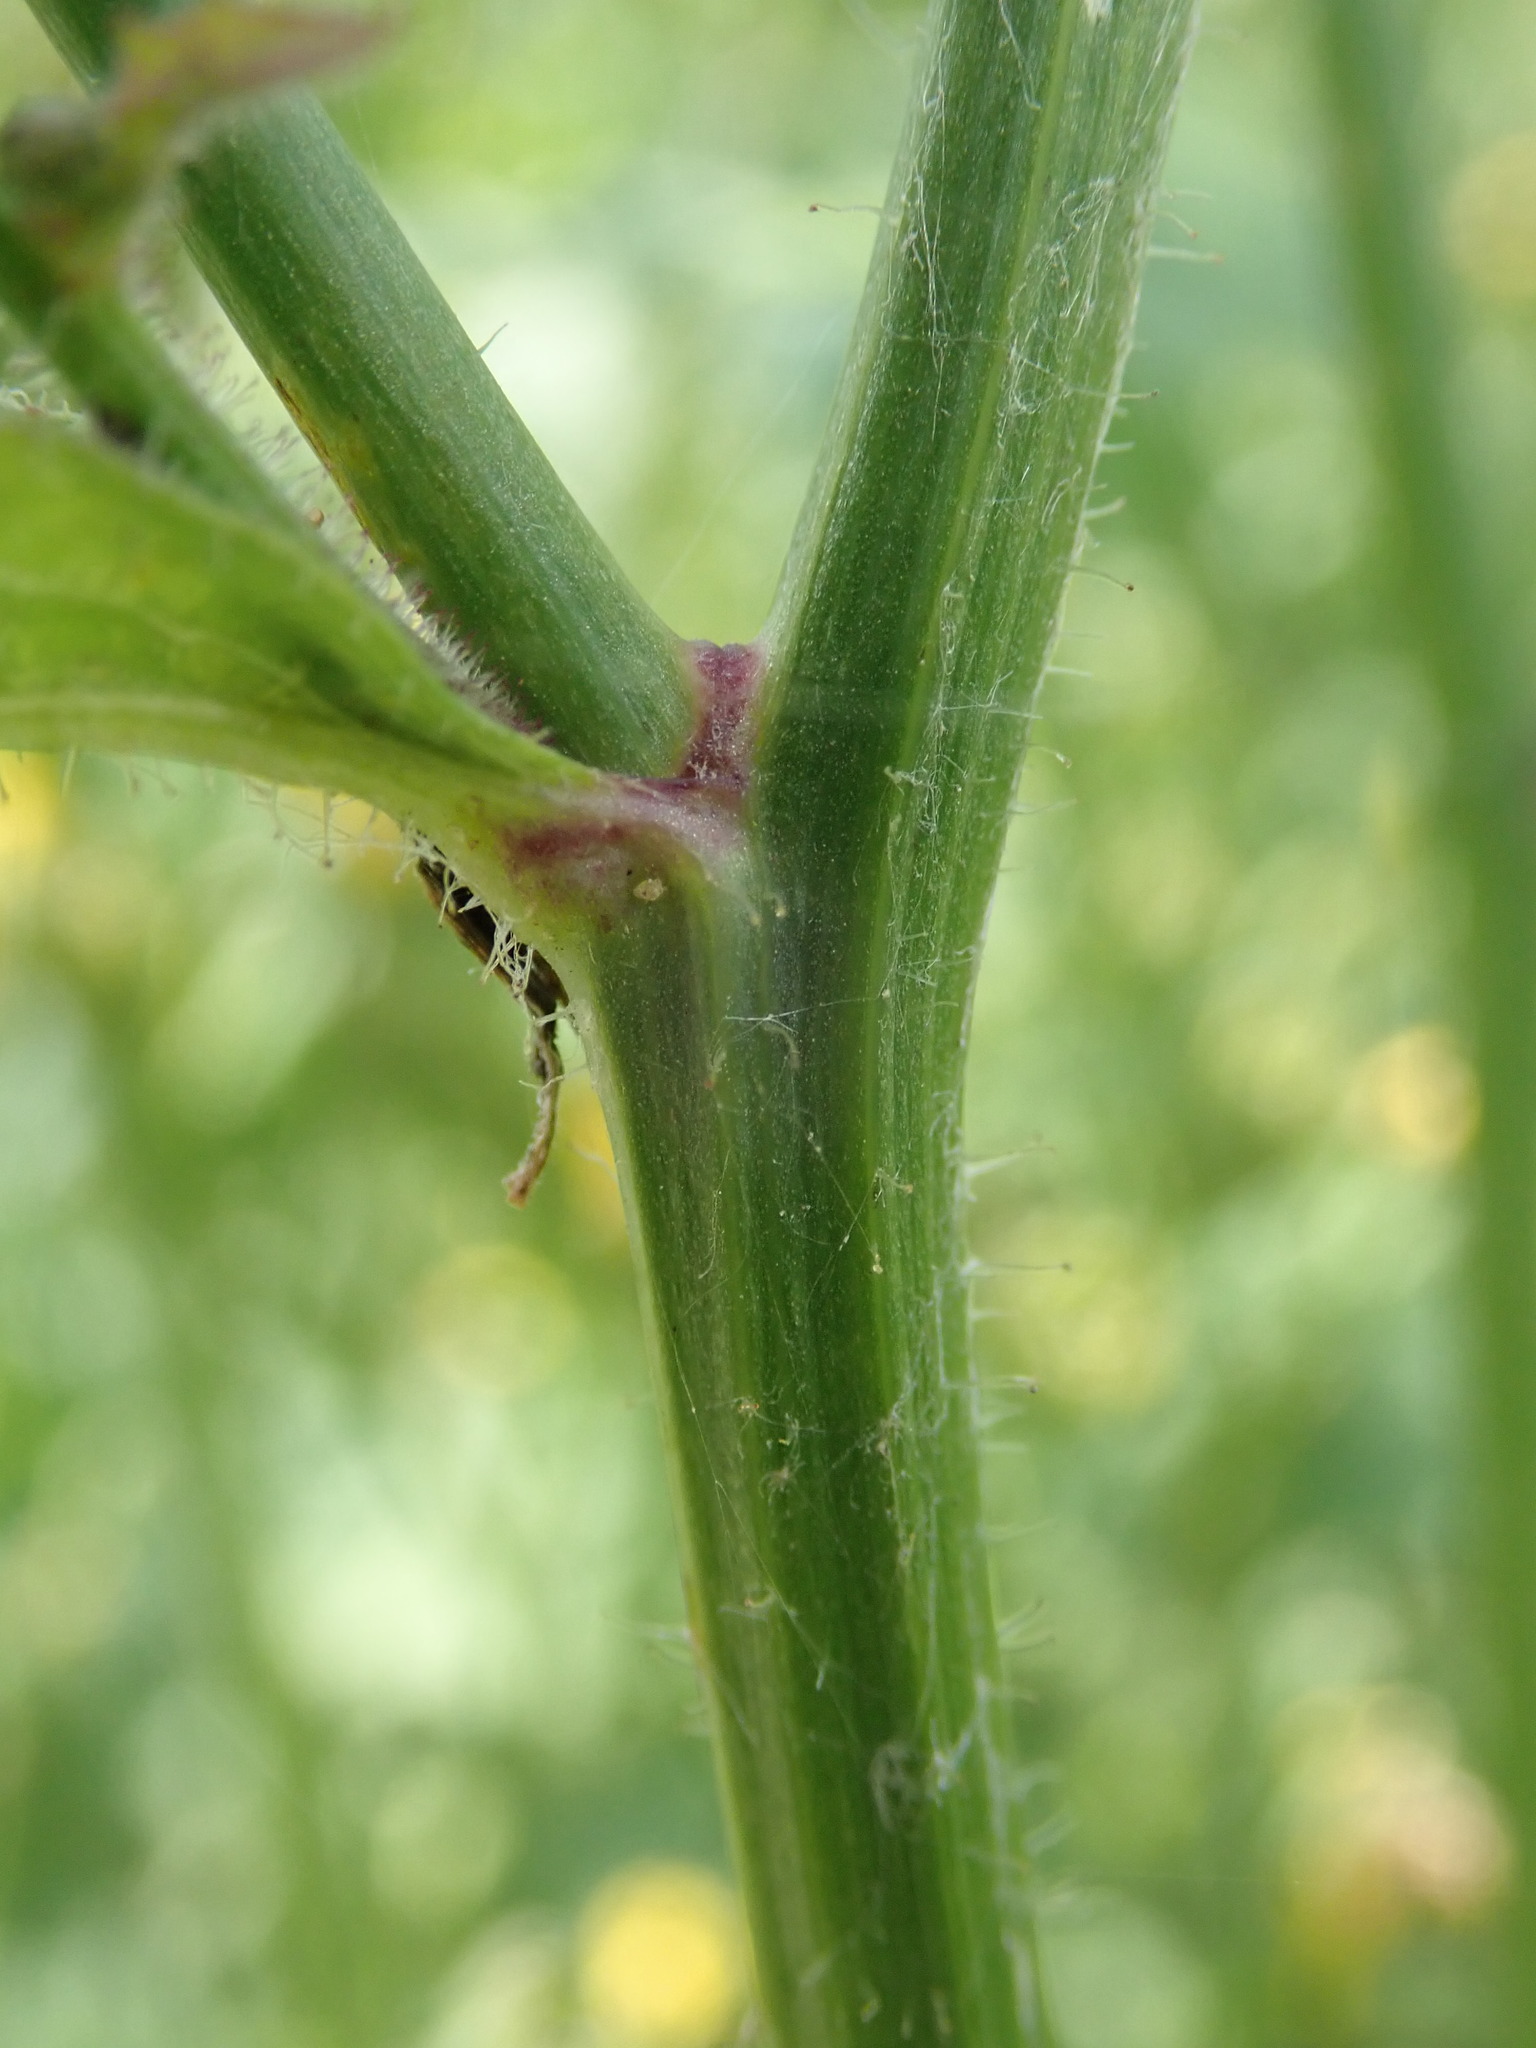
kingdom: Plantae
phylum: Tracheophyta
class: Magnoliopsida
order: Asterales
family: Asteraceae
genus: Lapsana
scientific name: Lapsana communis
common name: Nipplewort
